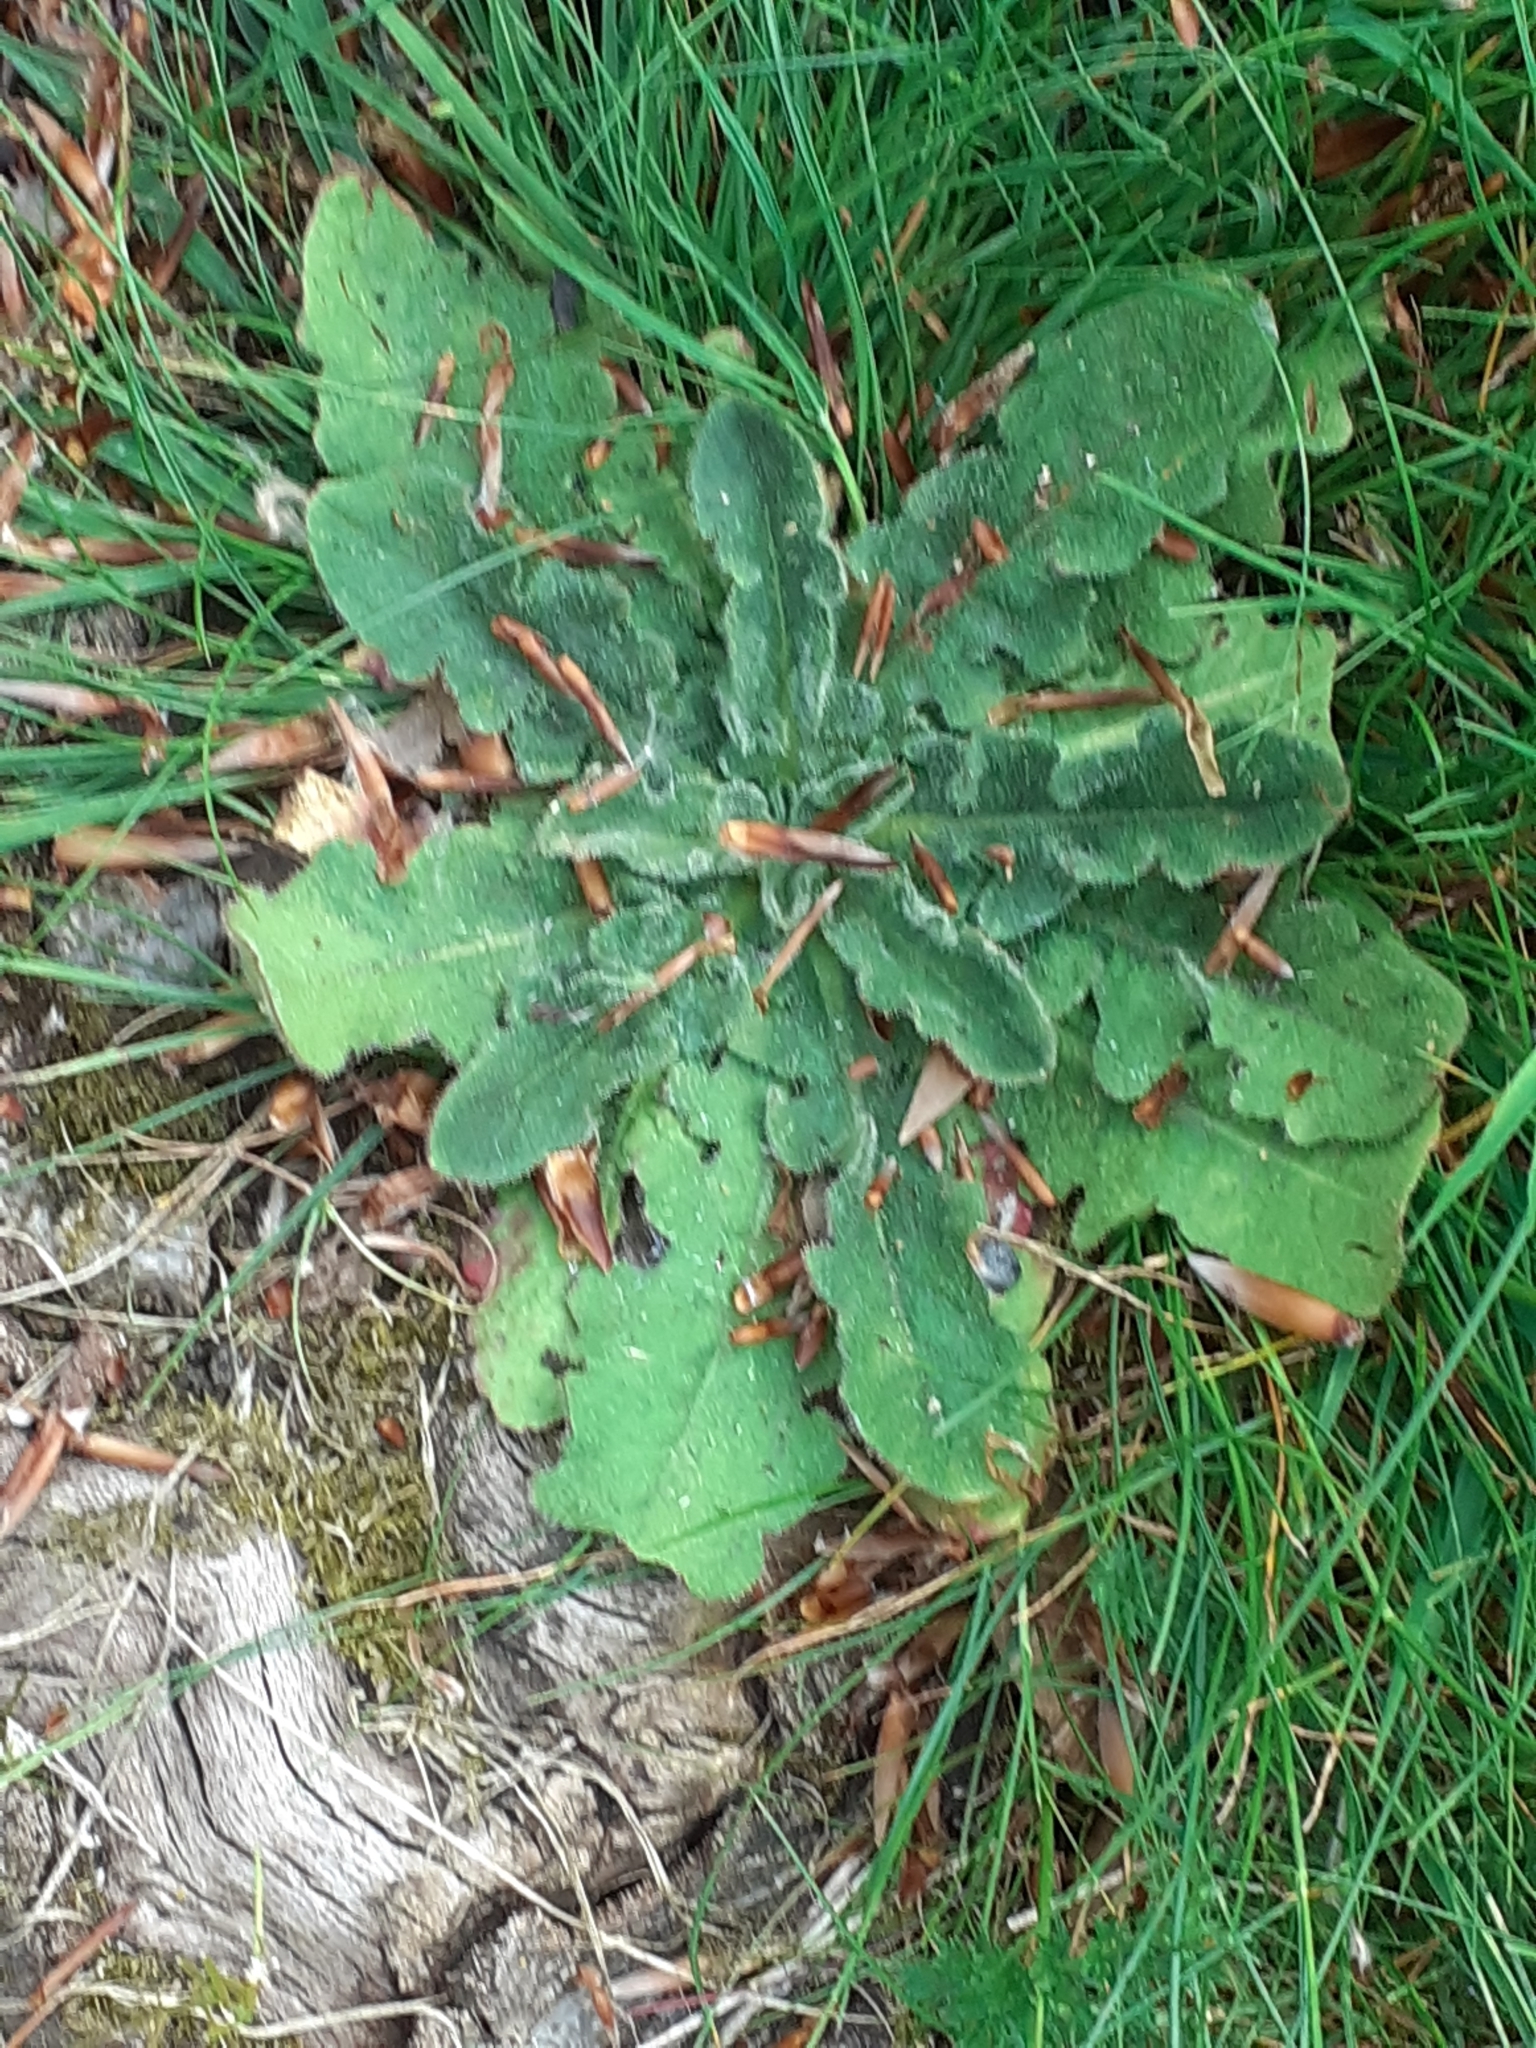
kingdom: Plantae
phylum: Tracheophyta
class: Magnoliopsida
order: Asterales
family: Asteraceae
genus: Hypochaeris
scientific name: Hypochaeris radicata
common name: Flatweed
